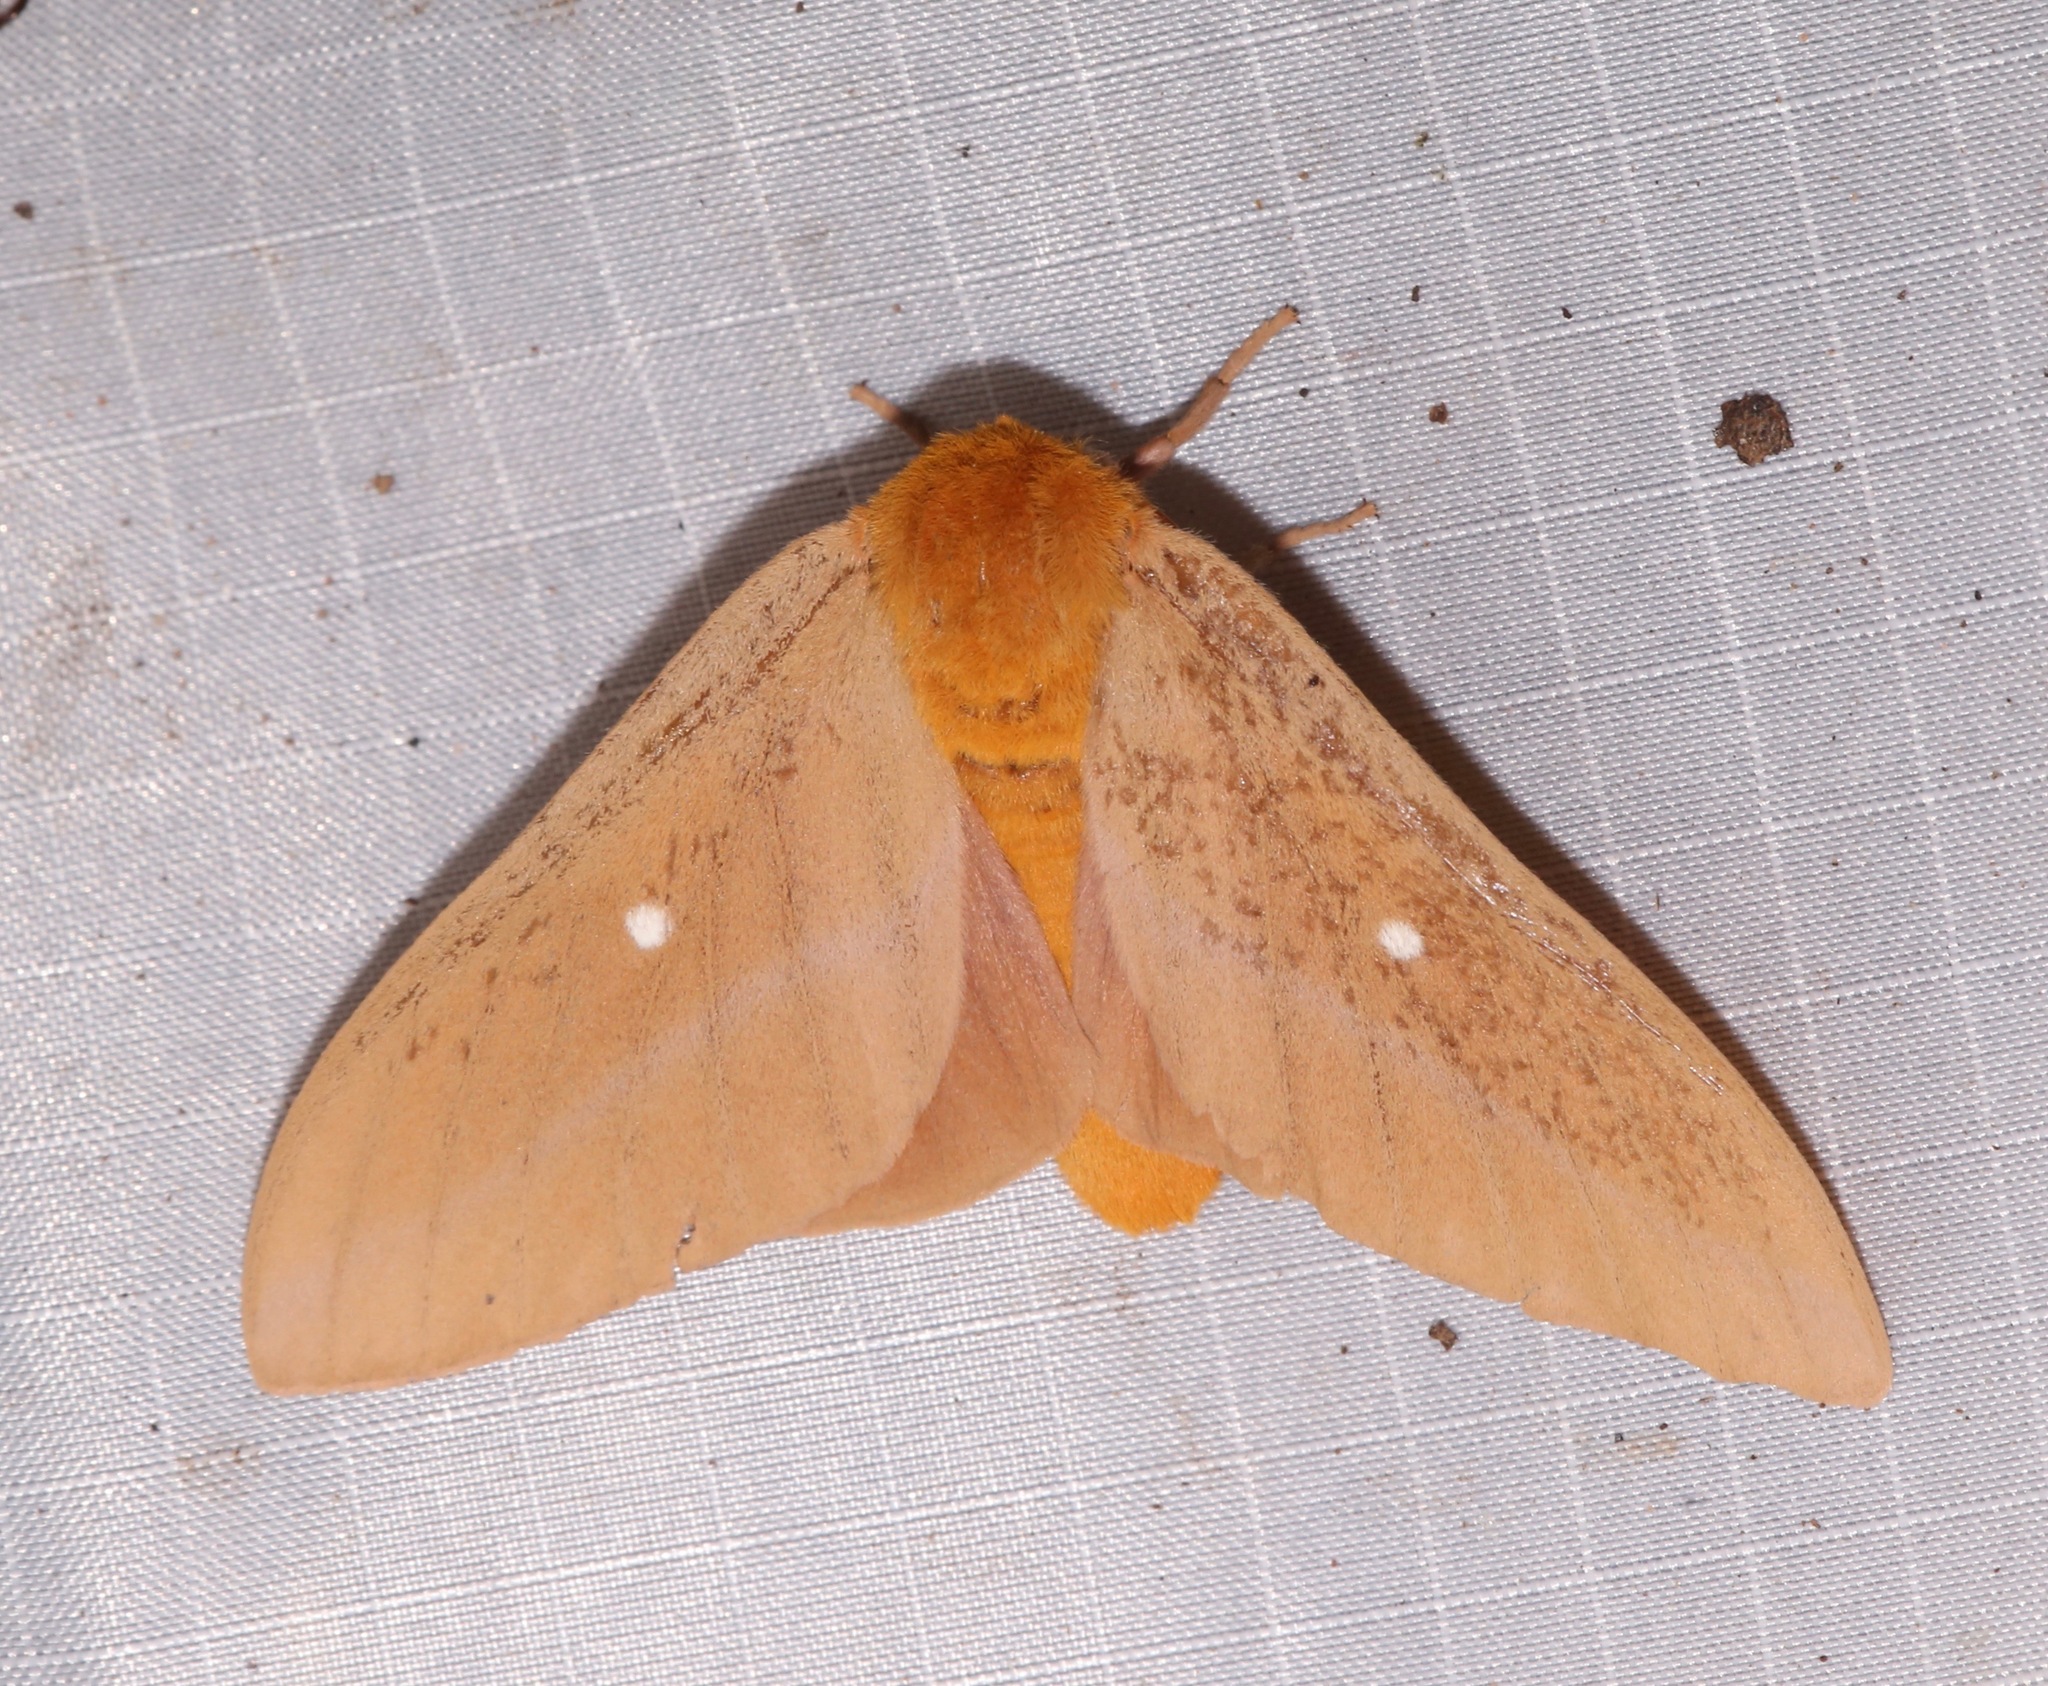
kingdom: Animalia
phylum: Arthropoda
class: Insecta
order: Lepidoptera
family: Saturniidae
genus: Anisota
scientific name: Anisota oslari
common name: Oslar's oakworm moth
